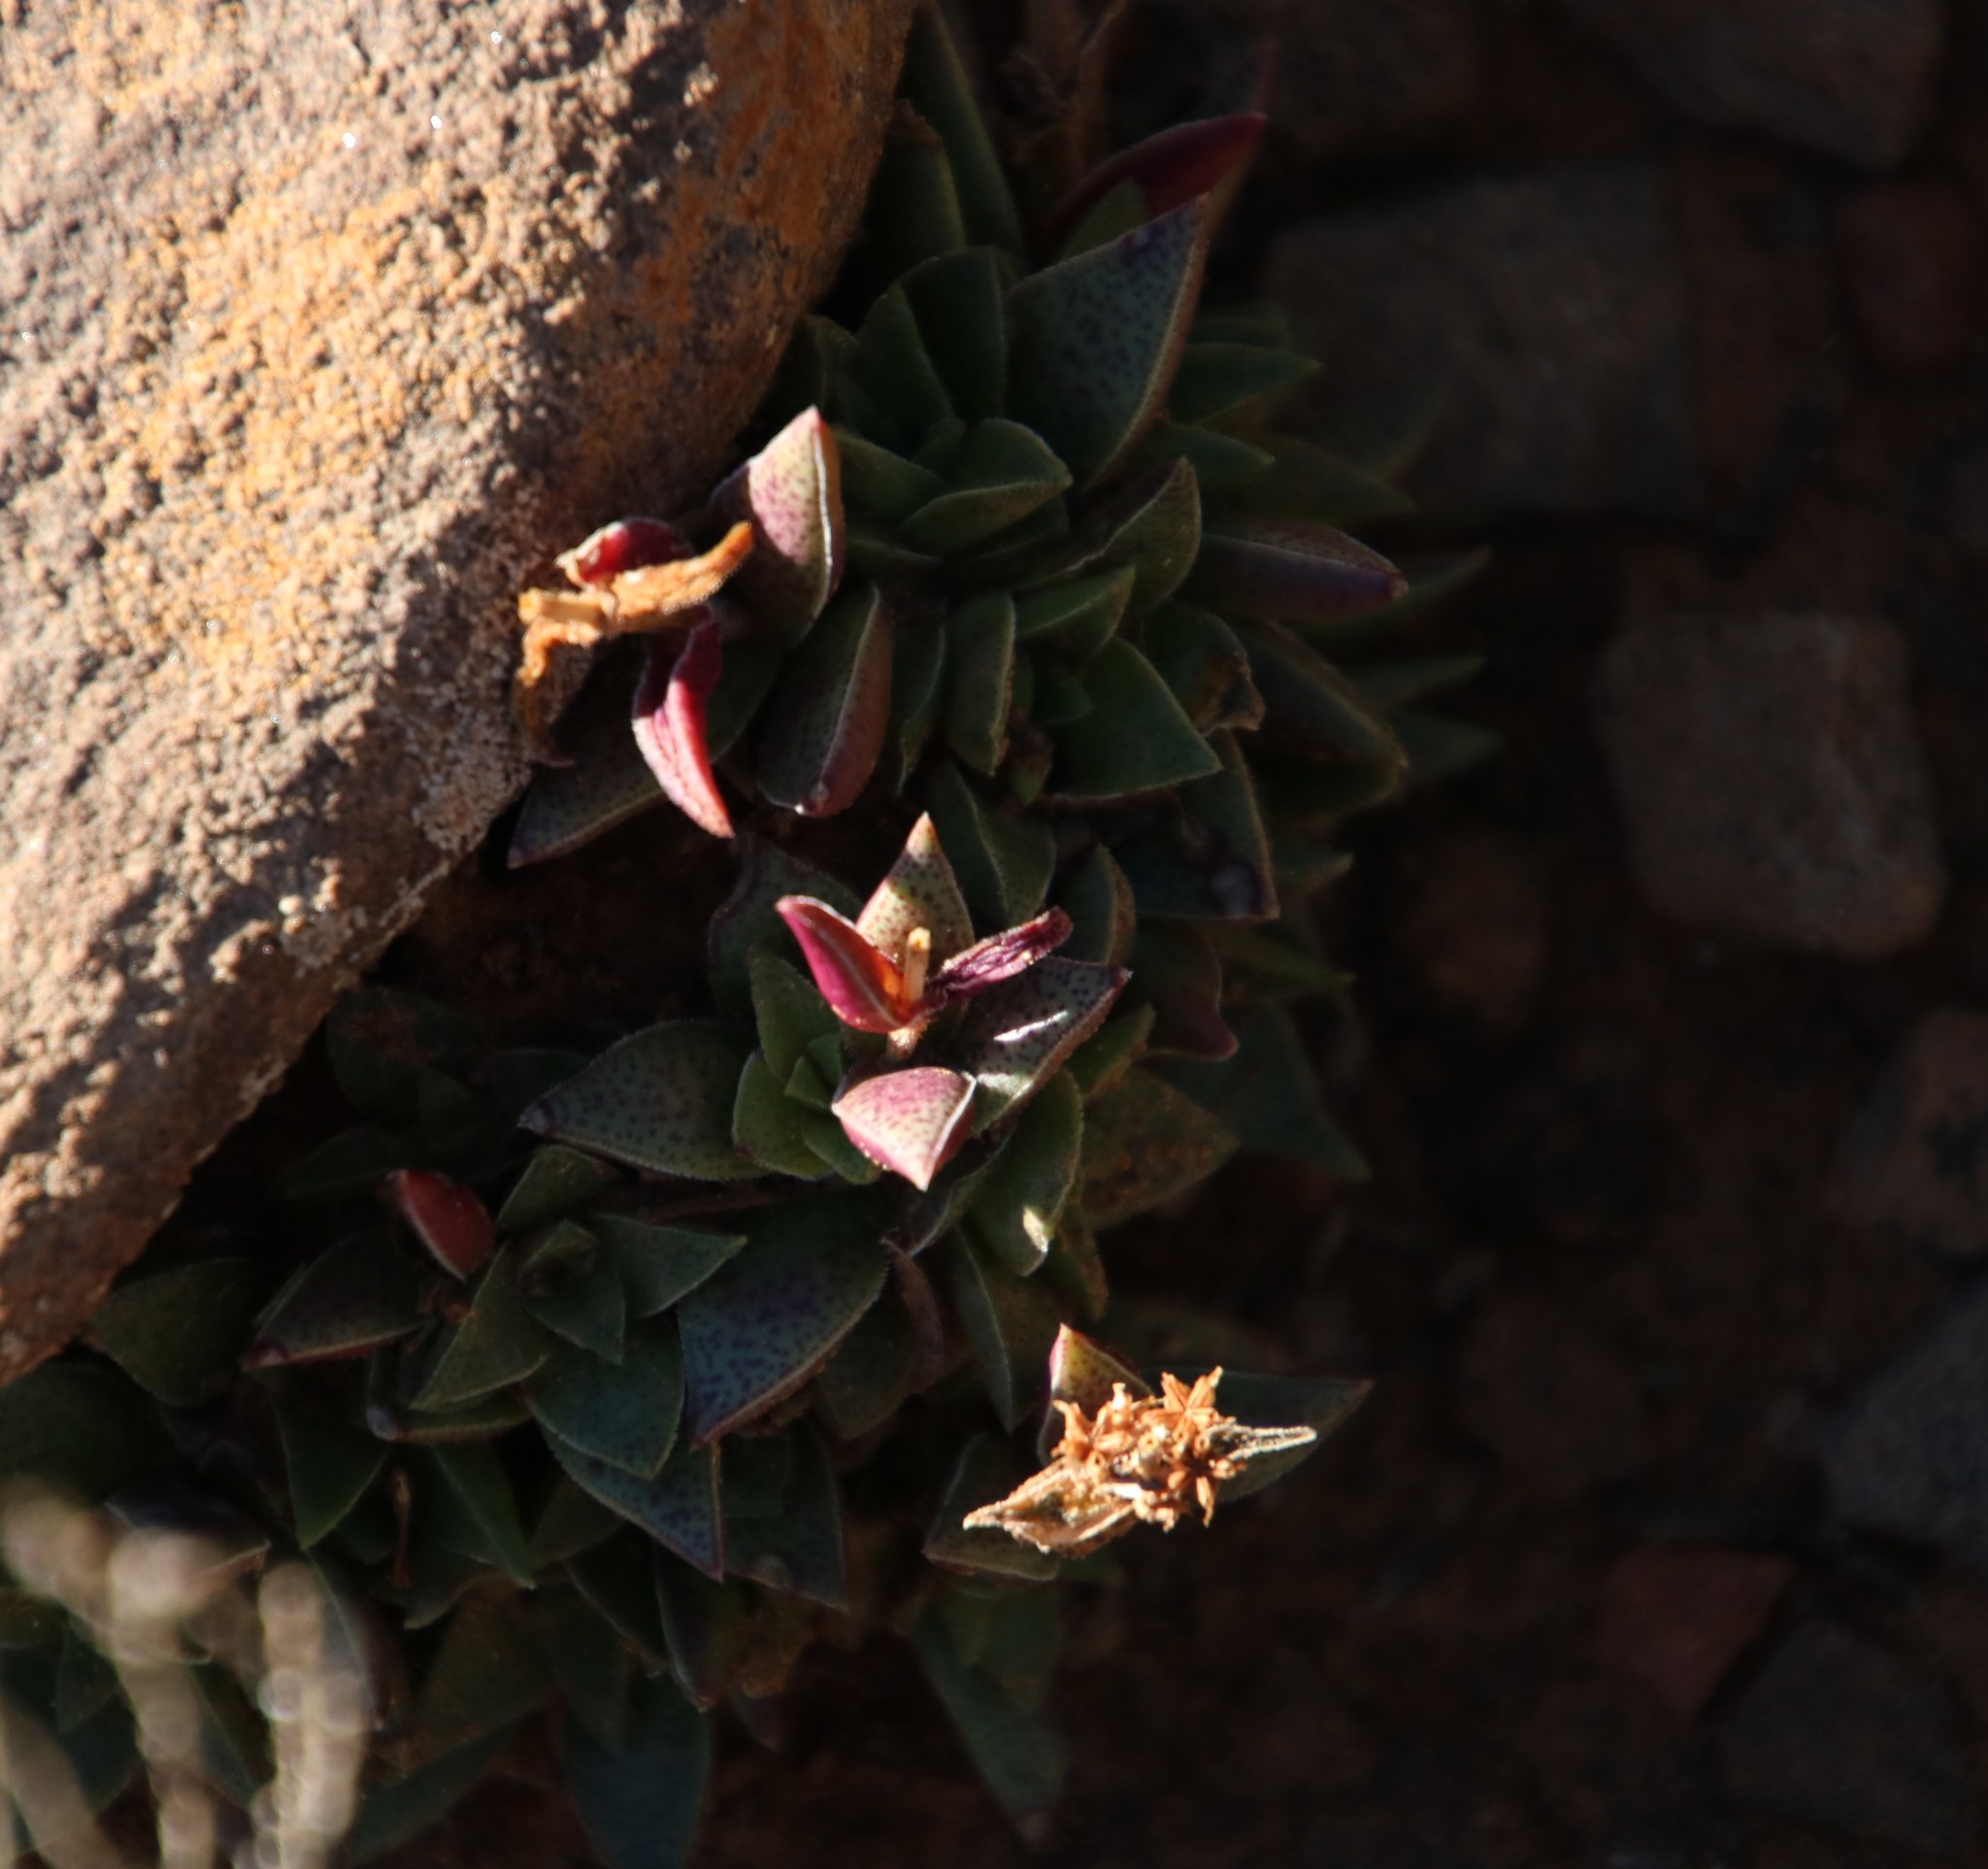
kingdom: Plantae
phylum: Tracheophyta
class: Magnoliopsida
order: Saxifragales
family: Crassulaceae
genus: Crassula
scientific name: Crassula capitella
